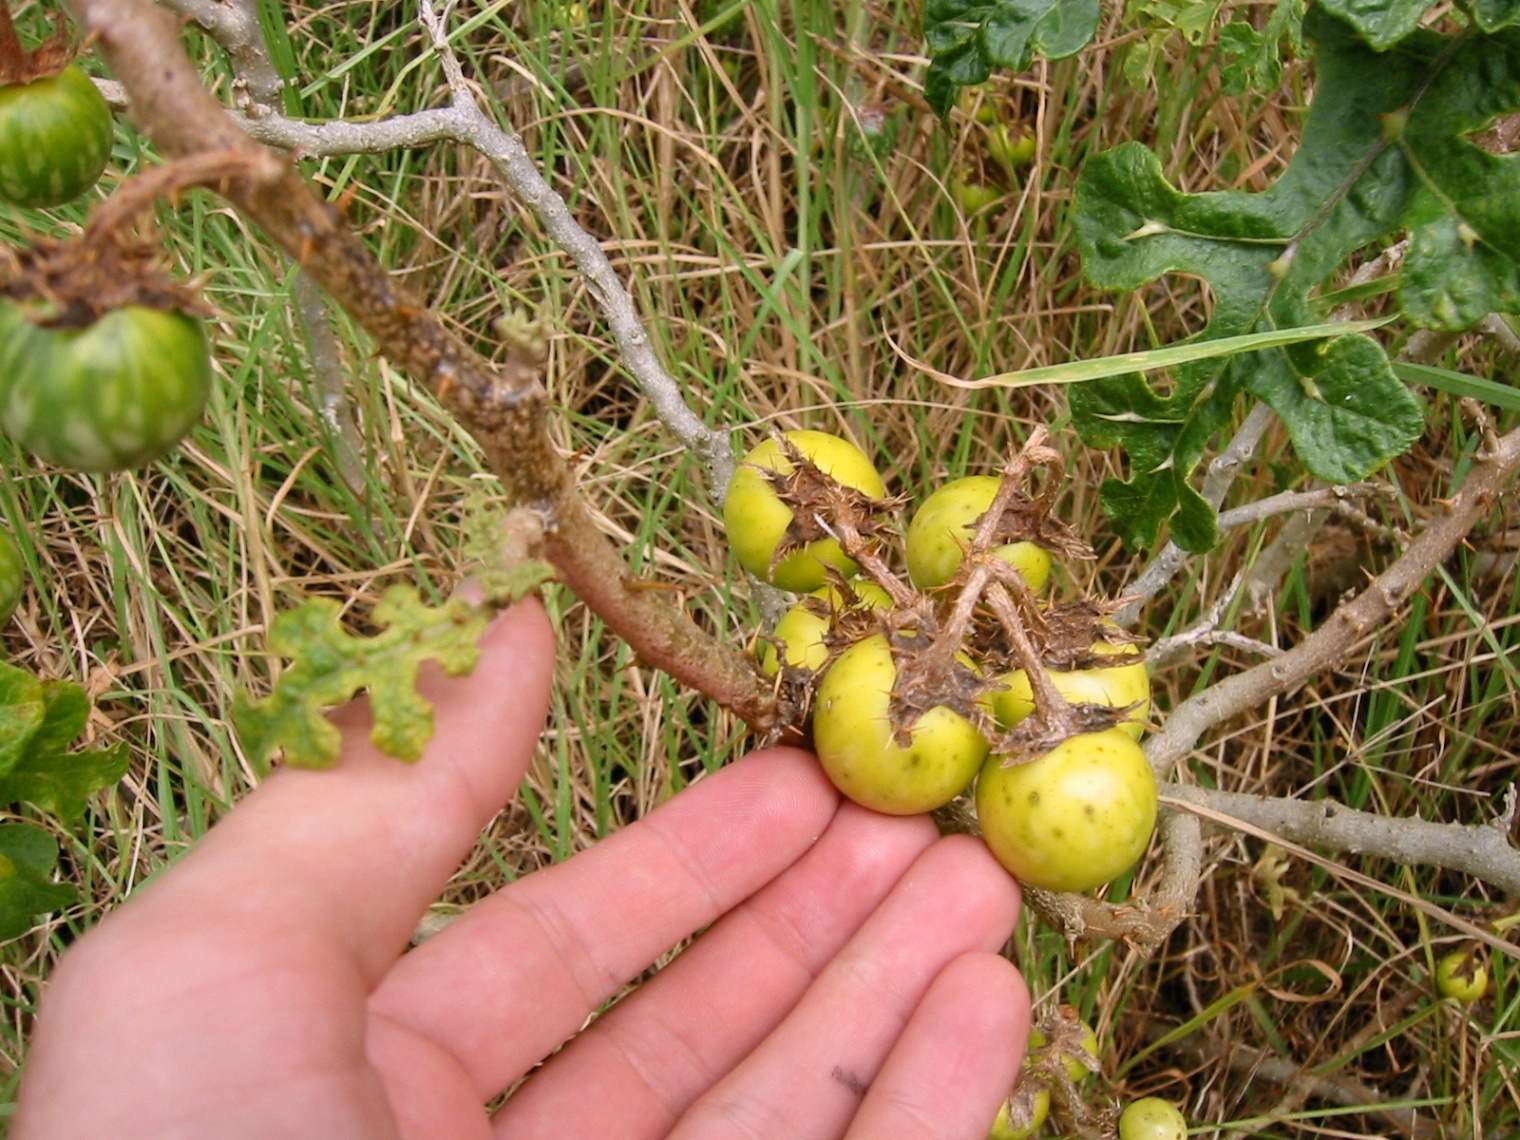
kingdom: Plantae
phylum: Tracheophyta
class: Magnoliopsida
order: Solanales
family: Solanaceae
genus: Solanum
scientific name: Solanum linnaeanum
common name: Nightshade
